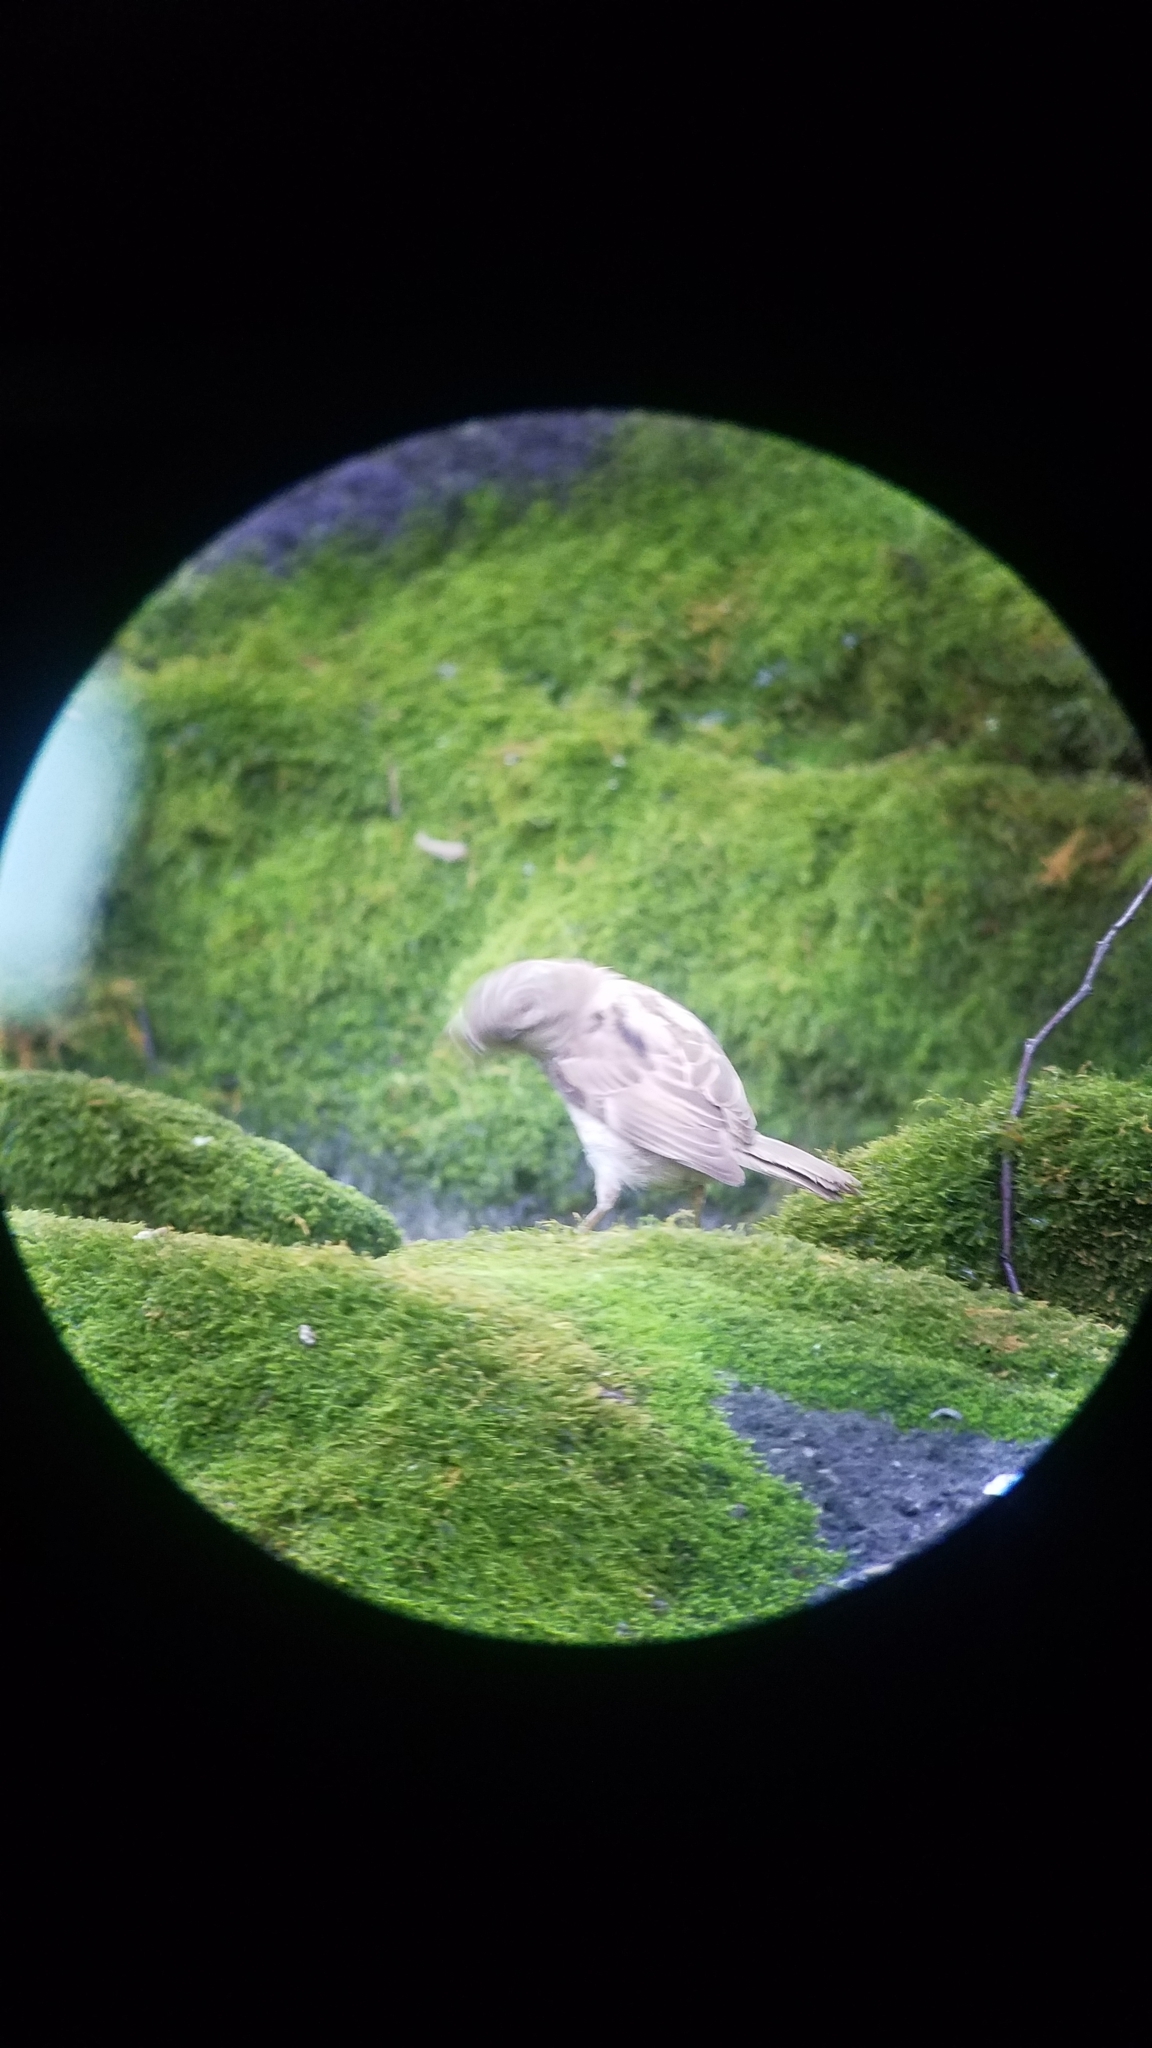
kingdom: Animalia
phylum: Chordata
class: Aves
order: Passeriformes
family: Passeridae
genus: Passer
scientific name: Passer domesticus
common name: House sparrow
